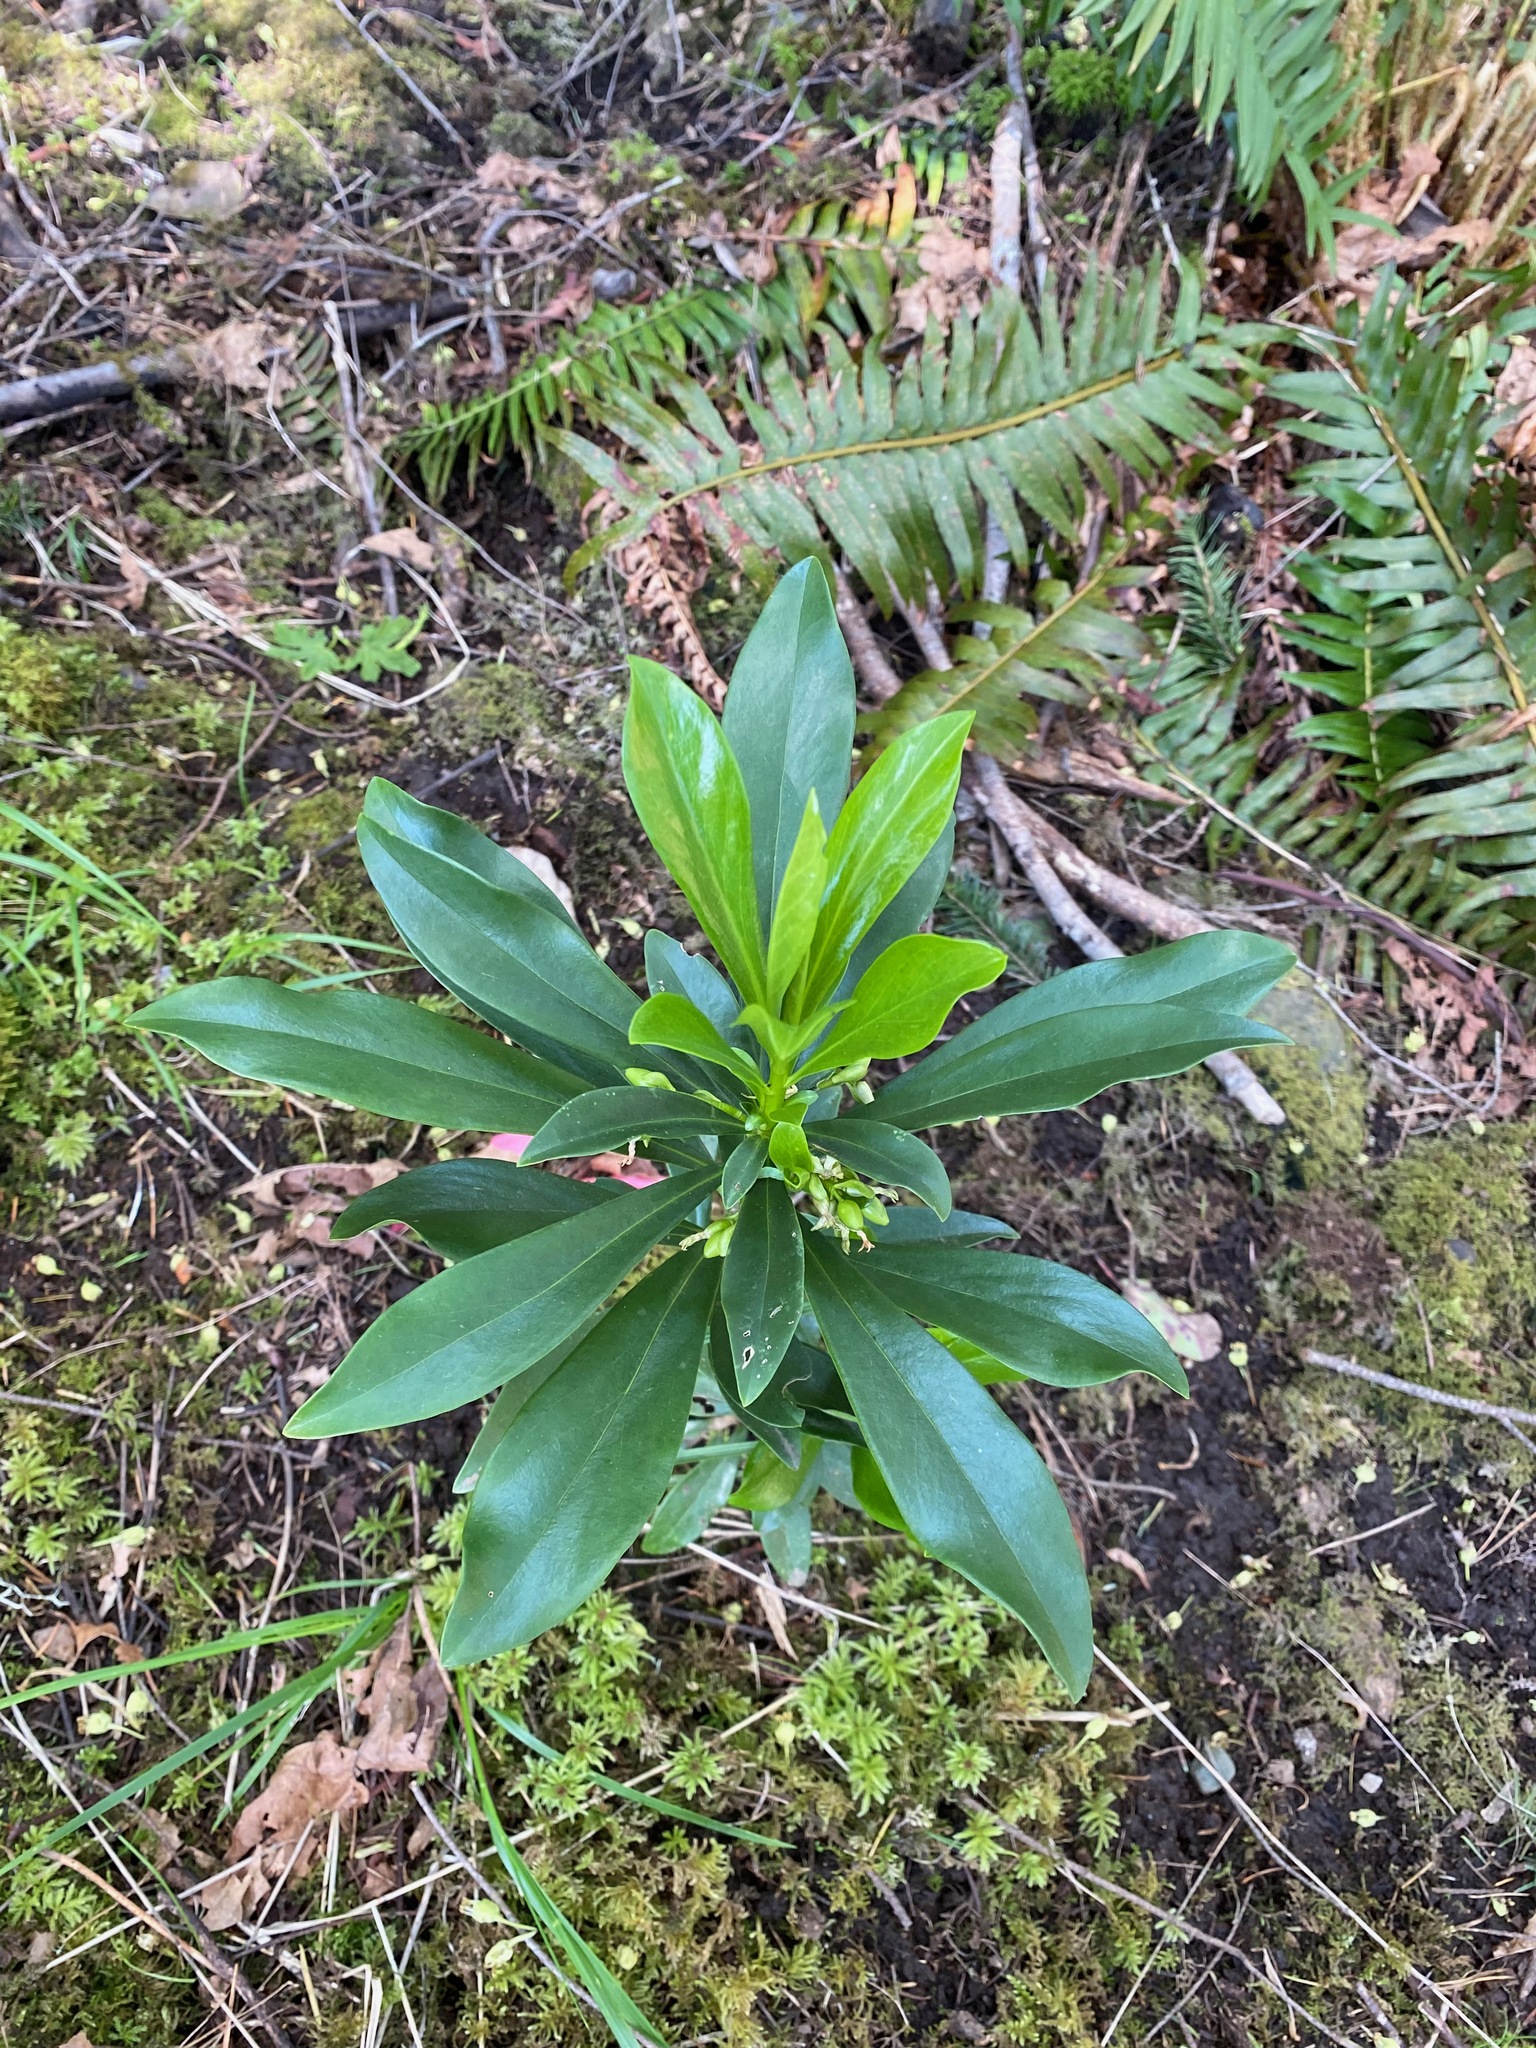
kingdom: Plantae
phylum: Tracheophyta
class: Magnoliopsida
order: Malvales
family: Thymelaeaceae
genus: Daphne
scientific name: Daphne laureola
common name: Spurge-laurel
